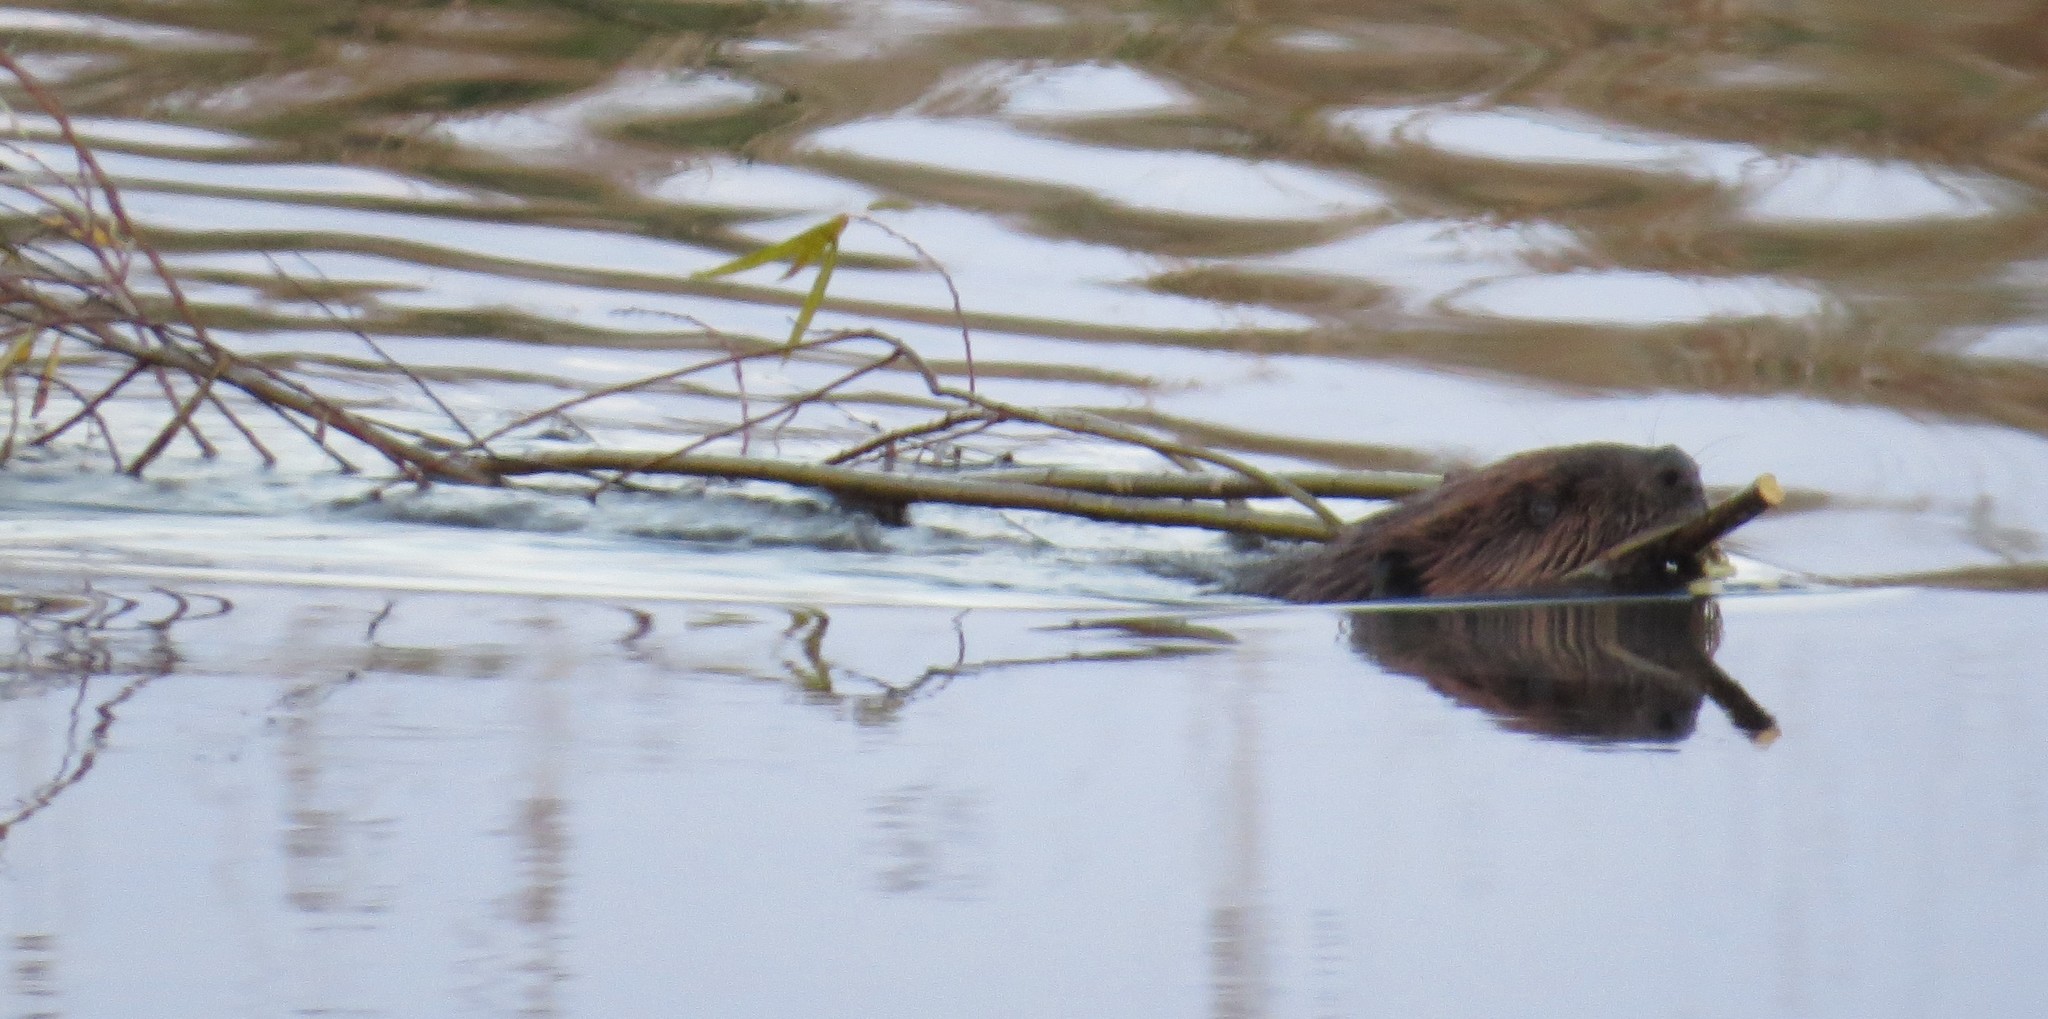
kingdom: Animalia
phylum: Chordata
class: Mammalia
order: Rodentia
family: Castoridae
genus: Castor
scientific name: Castor canadensis
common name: American beaver
